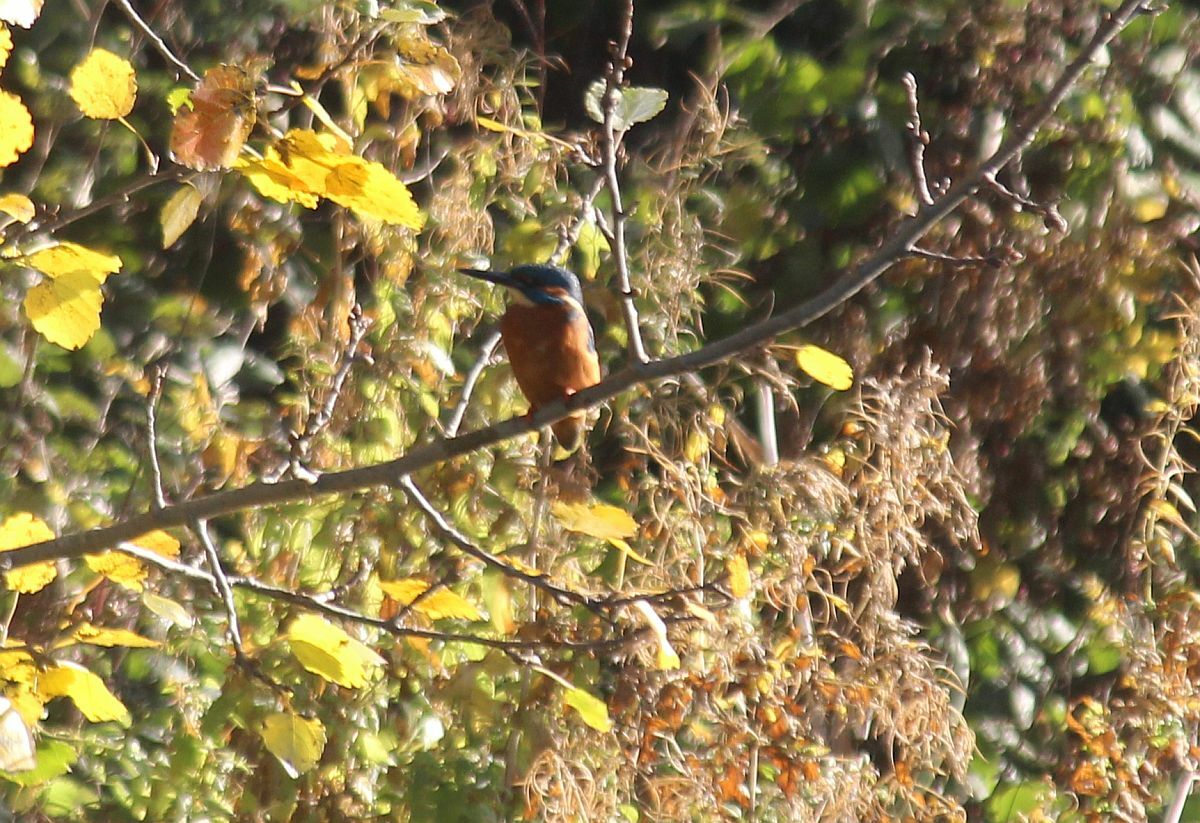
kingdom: Animalia
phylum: Chordata
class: Aves
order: Coraciiformes
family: Alcedinidae
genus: Alcedo
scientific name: Alcedo atthis
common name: Common kingfisher
